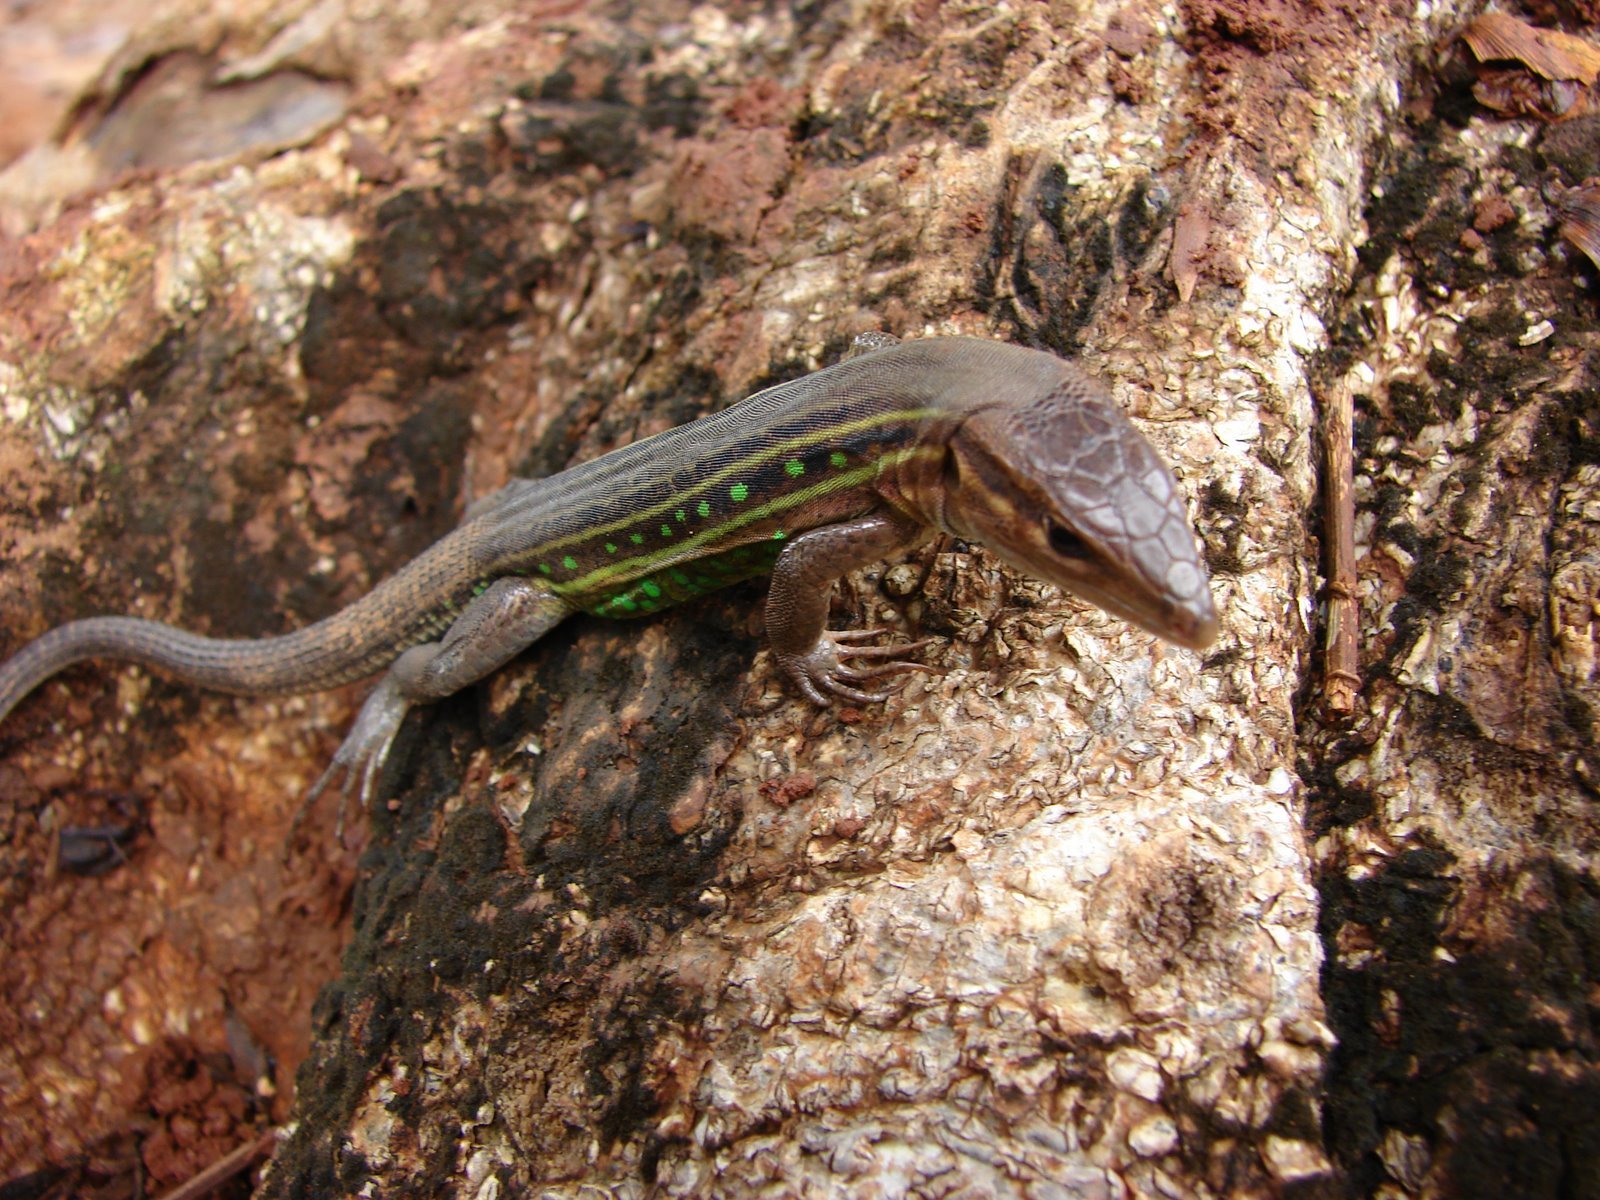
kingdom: Animalia
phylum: Chordata
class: Squamata
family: Teiidae
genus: Ameivula
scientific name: Ameivula ocellifera
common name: Spix's whiptail
